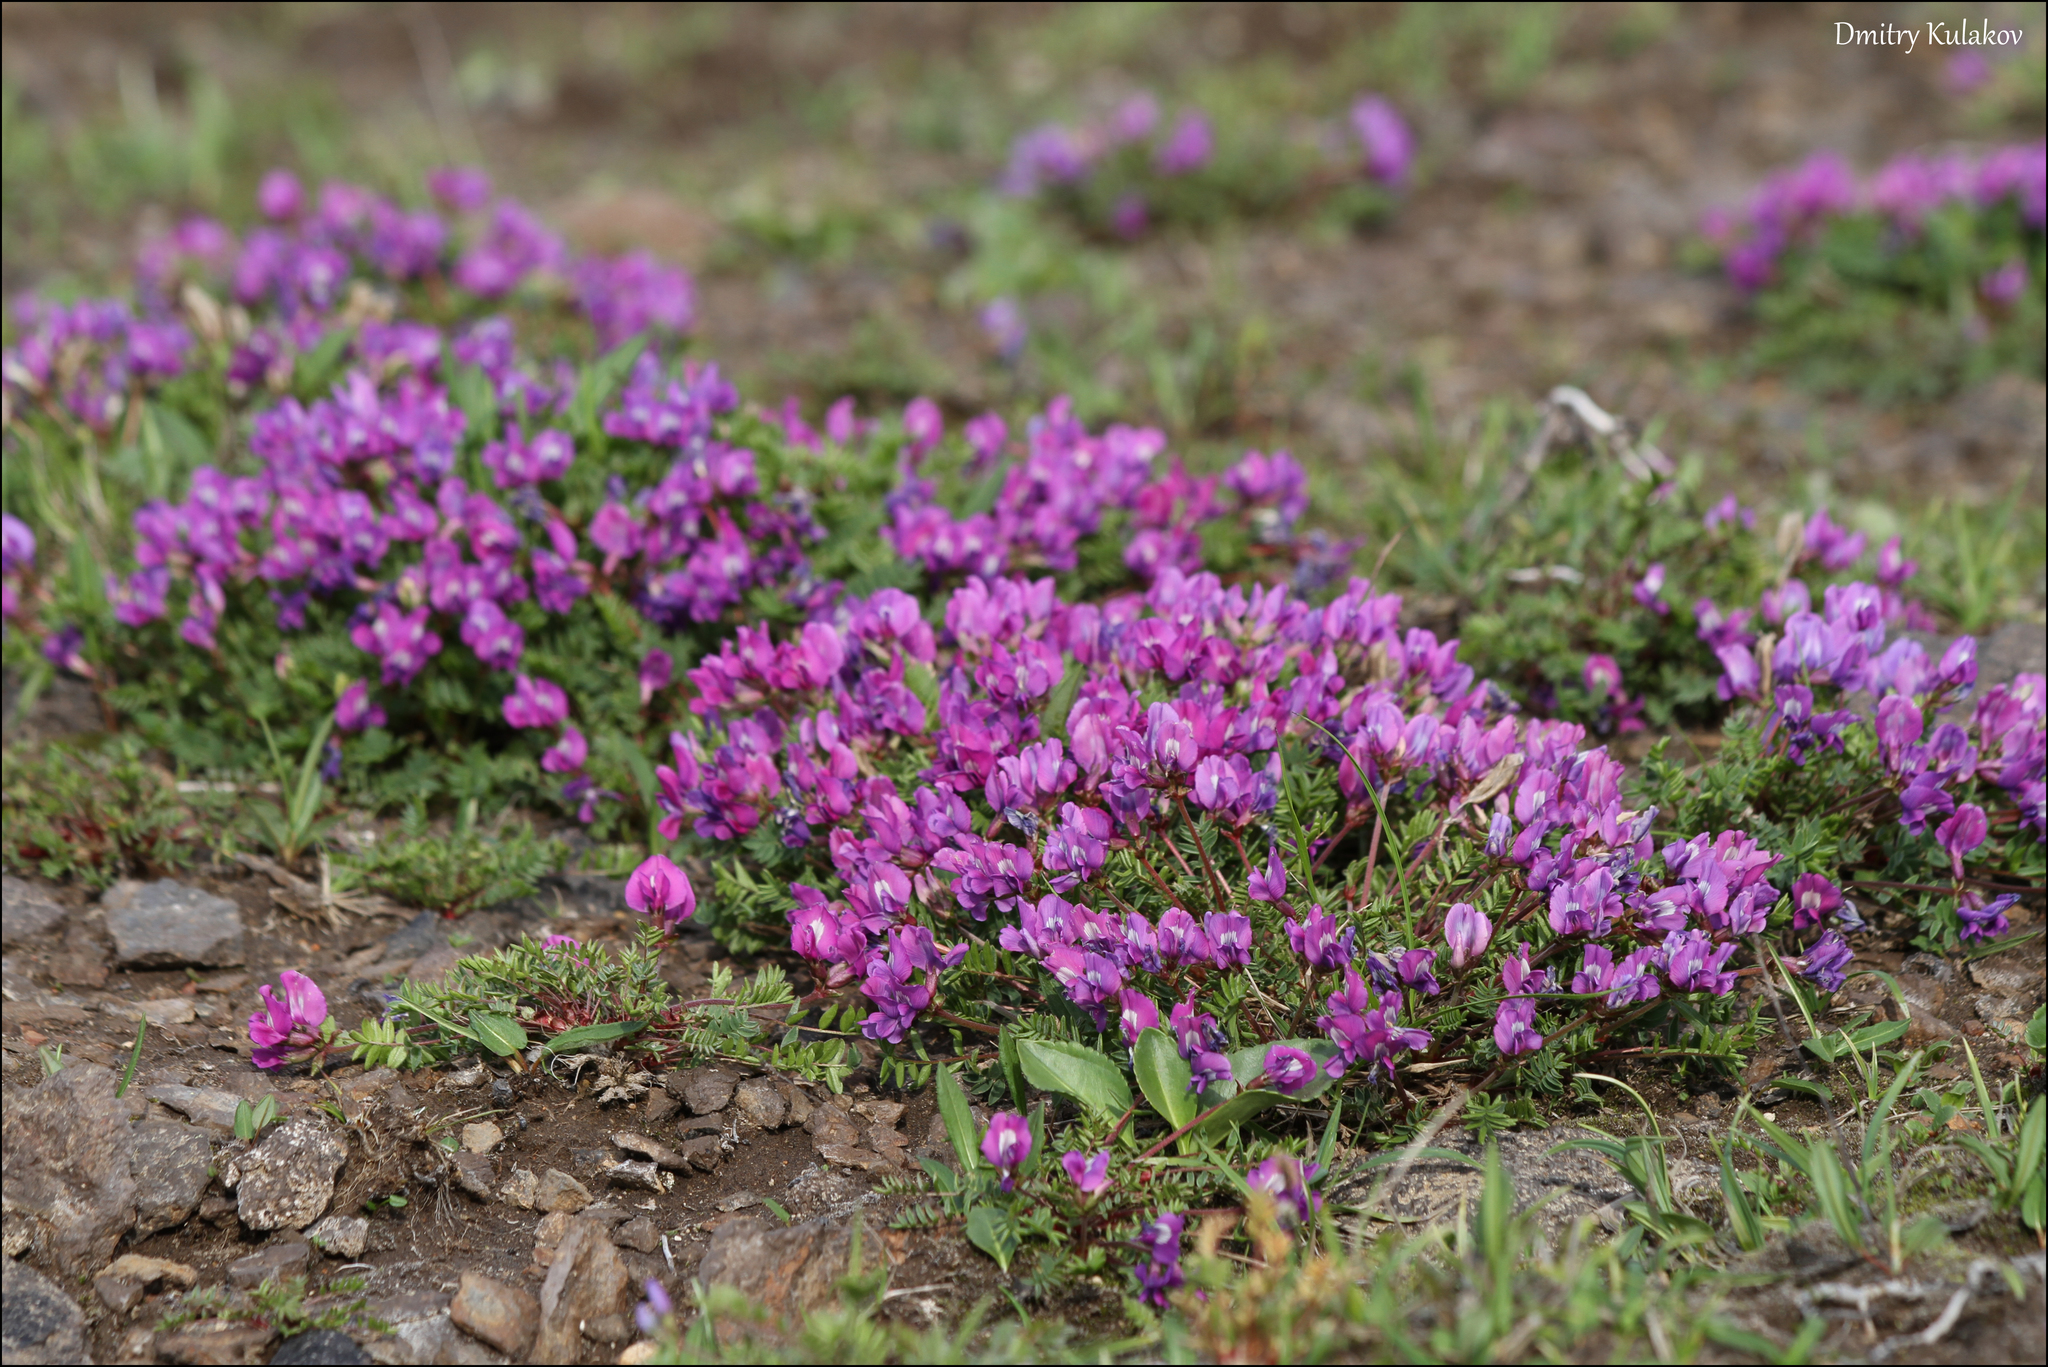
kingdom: Plantae
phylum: Tracheophyta
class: Magnoliopsida
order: Fabales
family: Fabaceae
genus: Oxytropis
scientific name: Oxytropis revoluta
